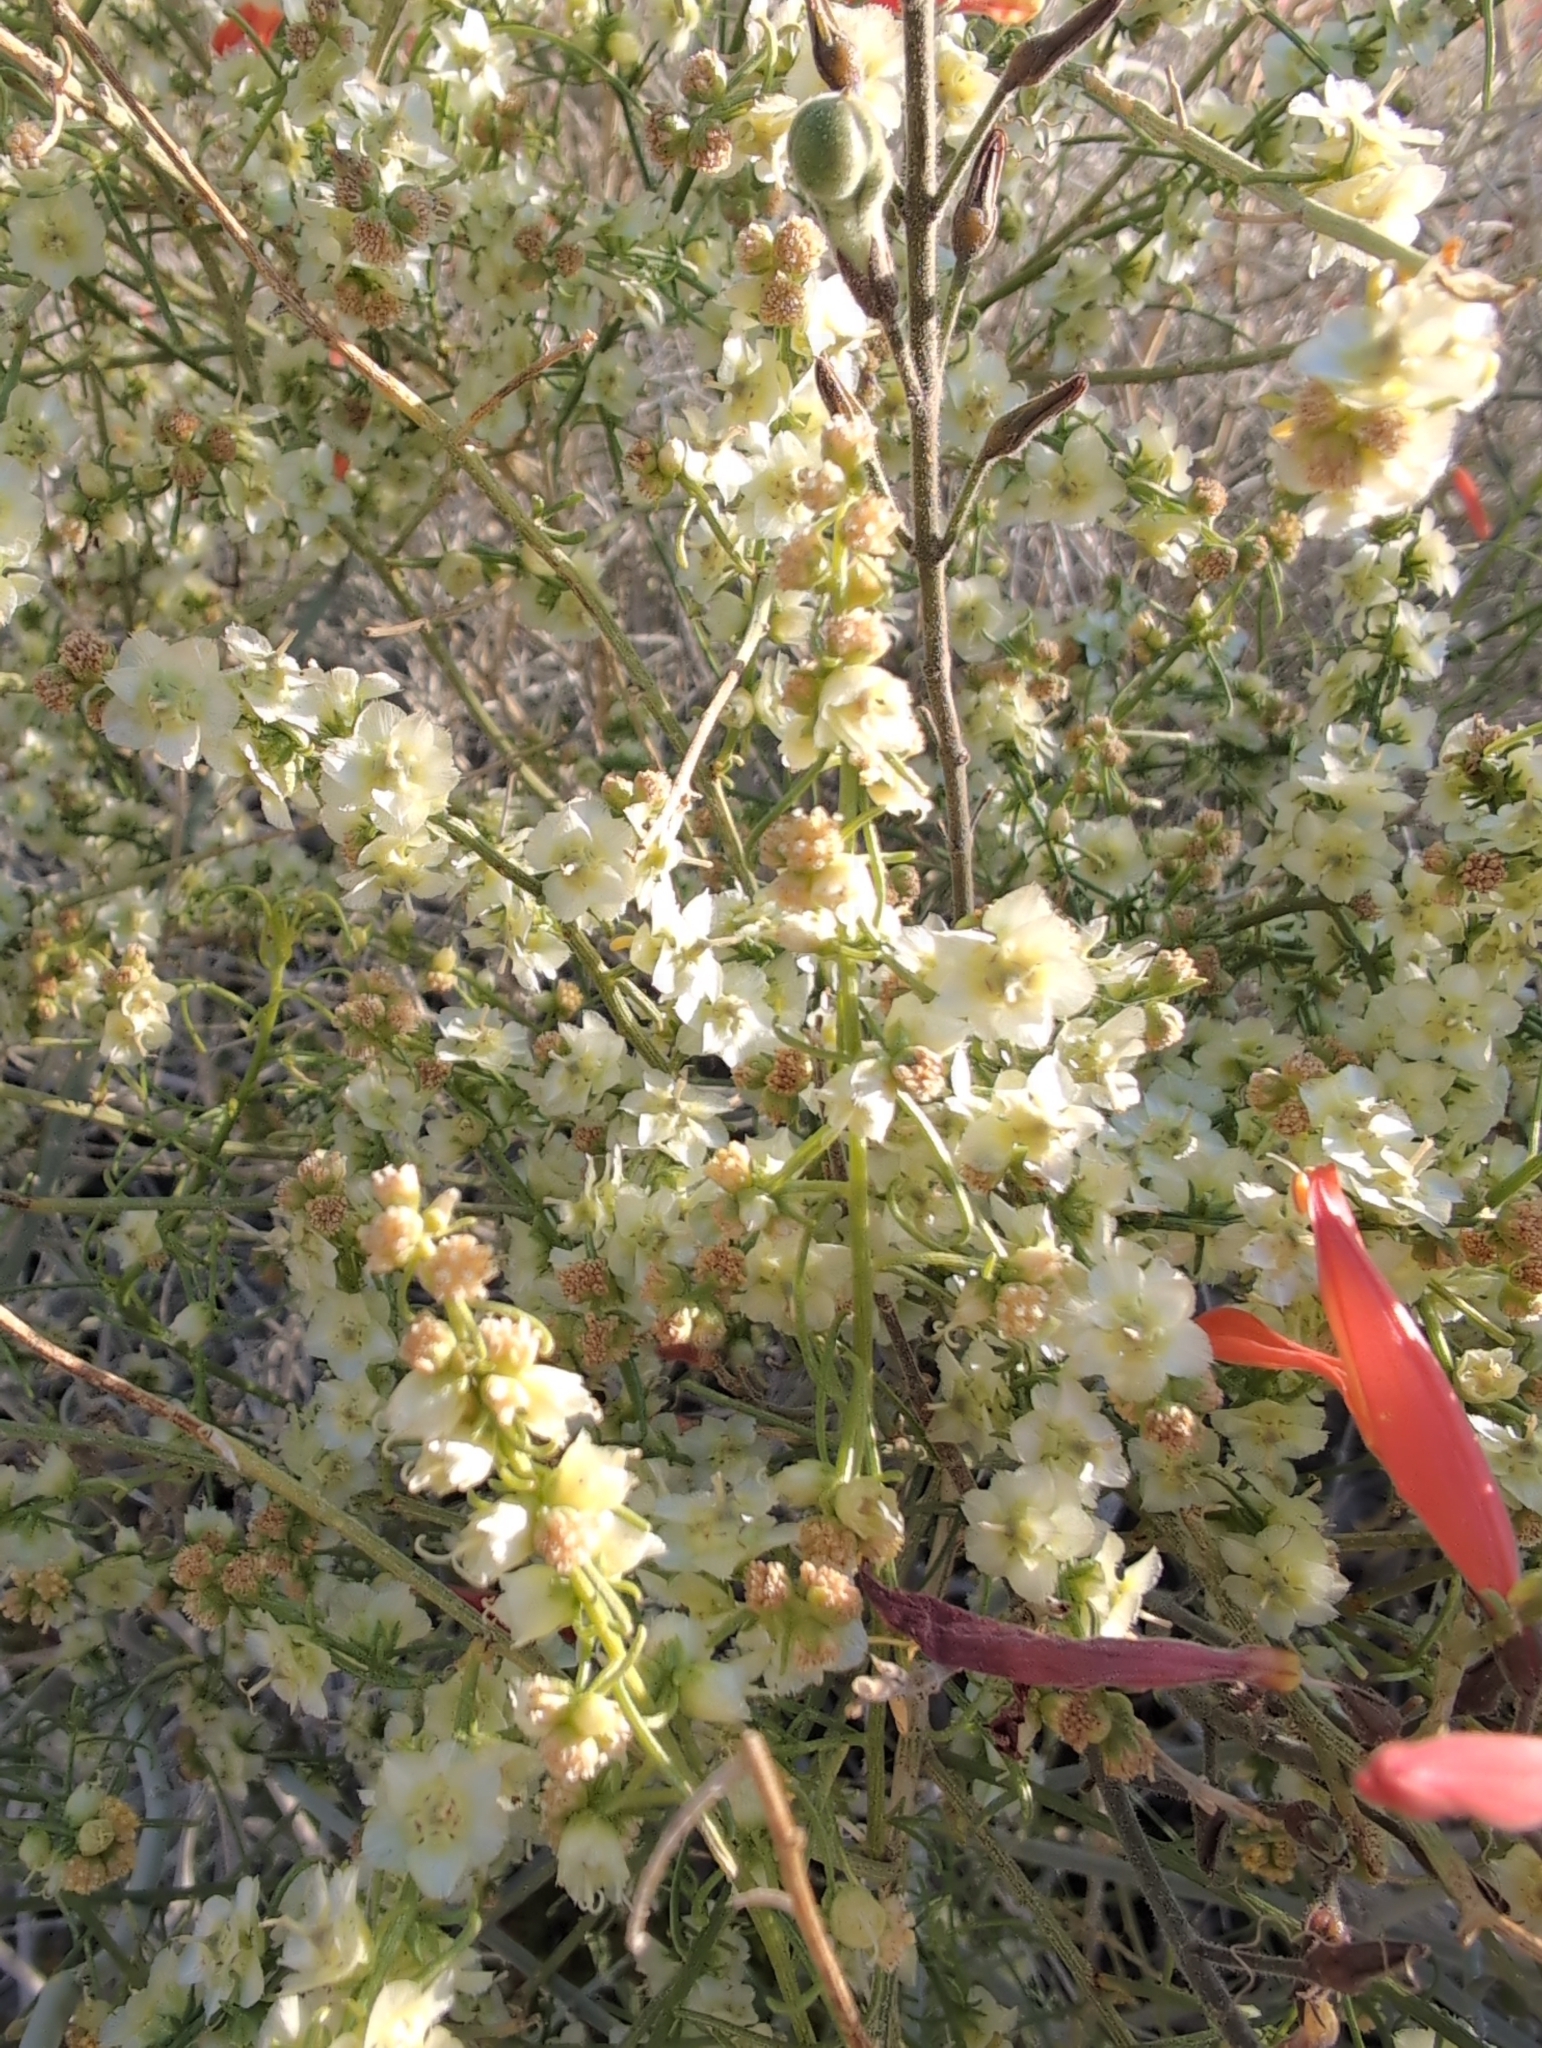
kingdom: Plantae
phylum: Tracheophyta
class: Magnoliopsida
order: Asterales
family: Asteraceae
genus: Ambrosia
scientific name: Ambrosia salsola
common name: Burrobrush
